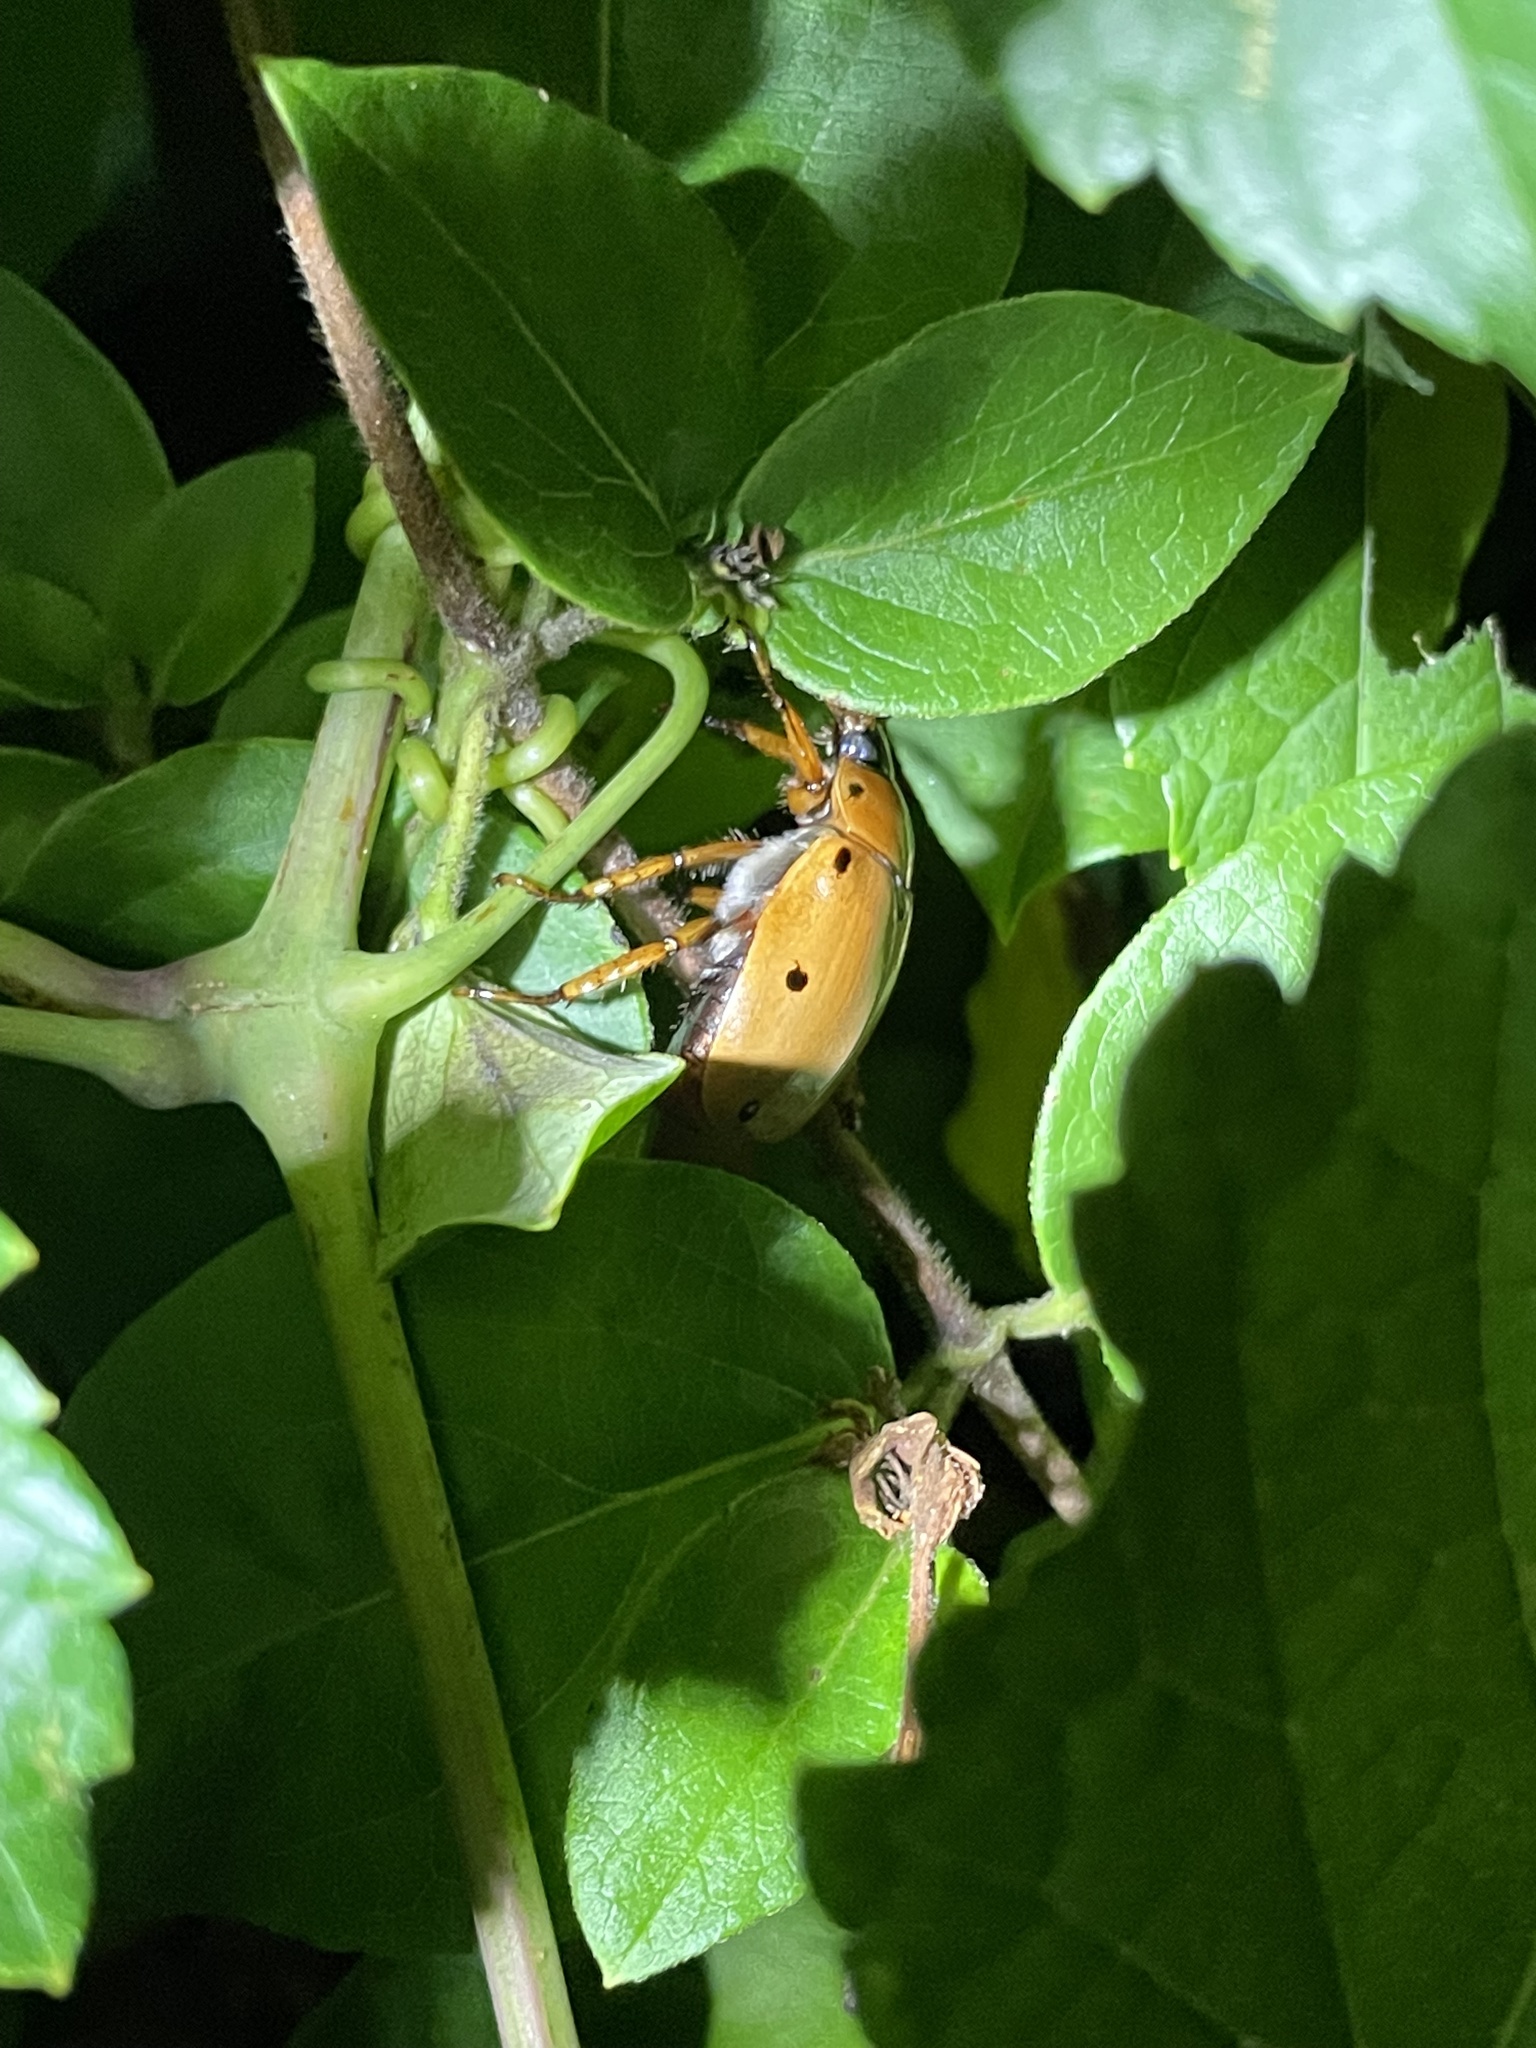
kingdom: Animalia
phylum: Arthropoda
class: Insecta
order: Coleoptera
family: Scarabaeidae
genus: Pelidnota
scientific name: Pelidnota punctata
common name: Grapevine beetle
